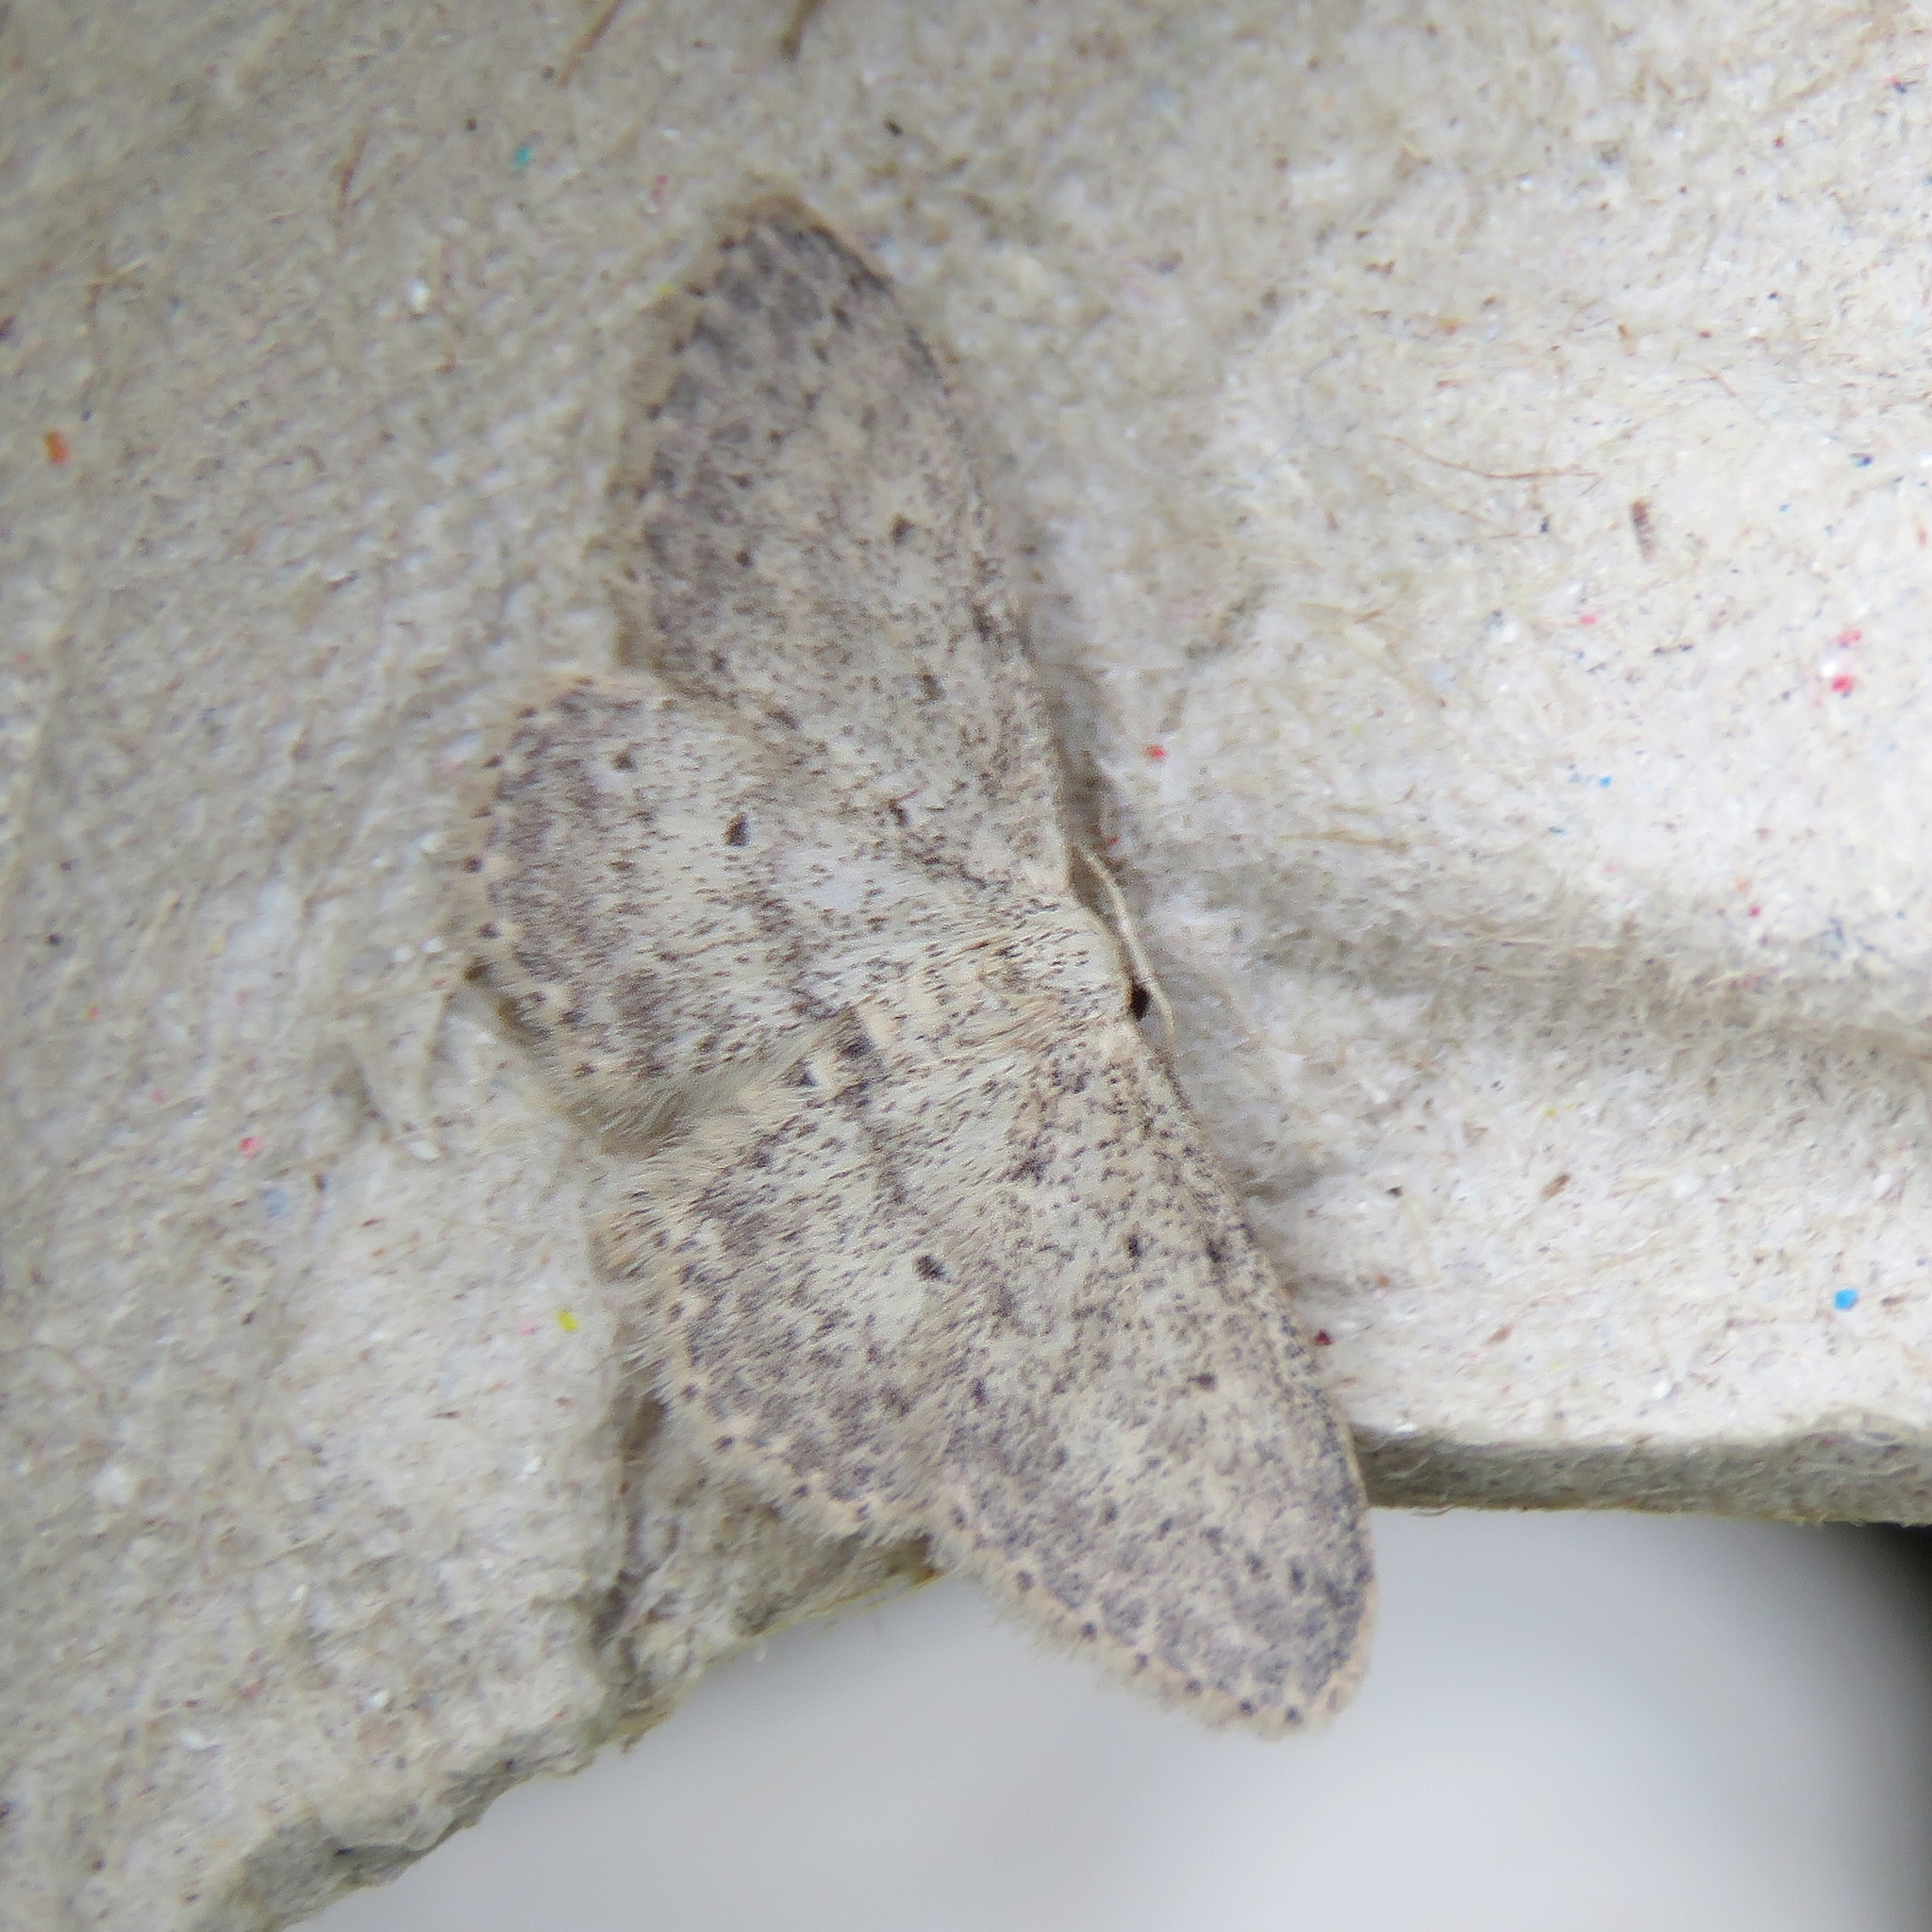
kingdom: Animalia
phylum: Arthropoda
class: Insecta
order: Lepidoptera
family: Geometridae
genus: Idaea
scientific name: Idaea seriata
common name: Small dusty wave
